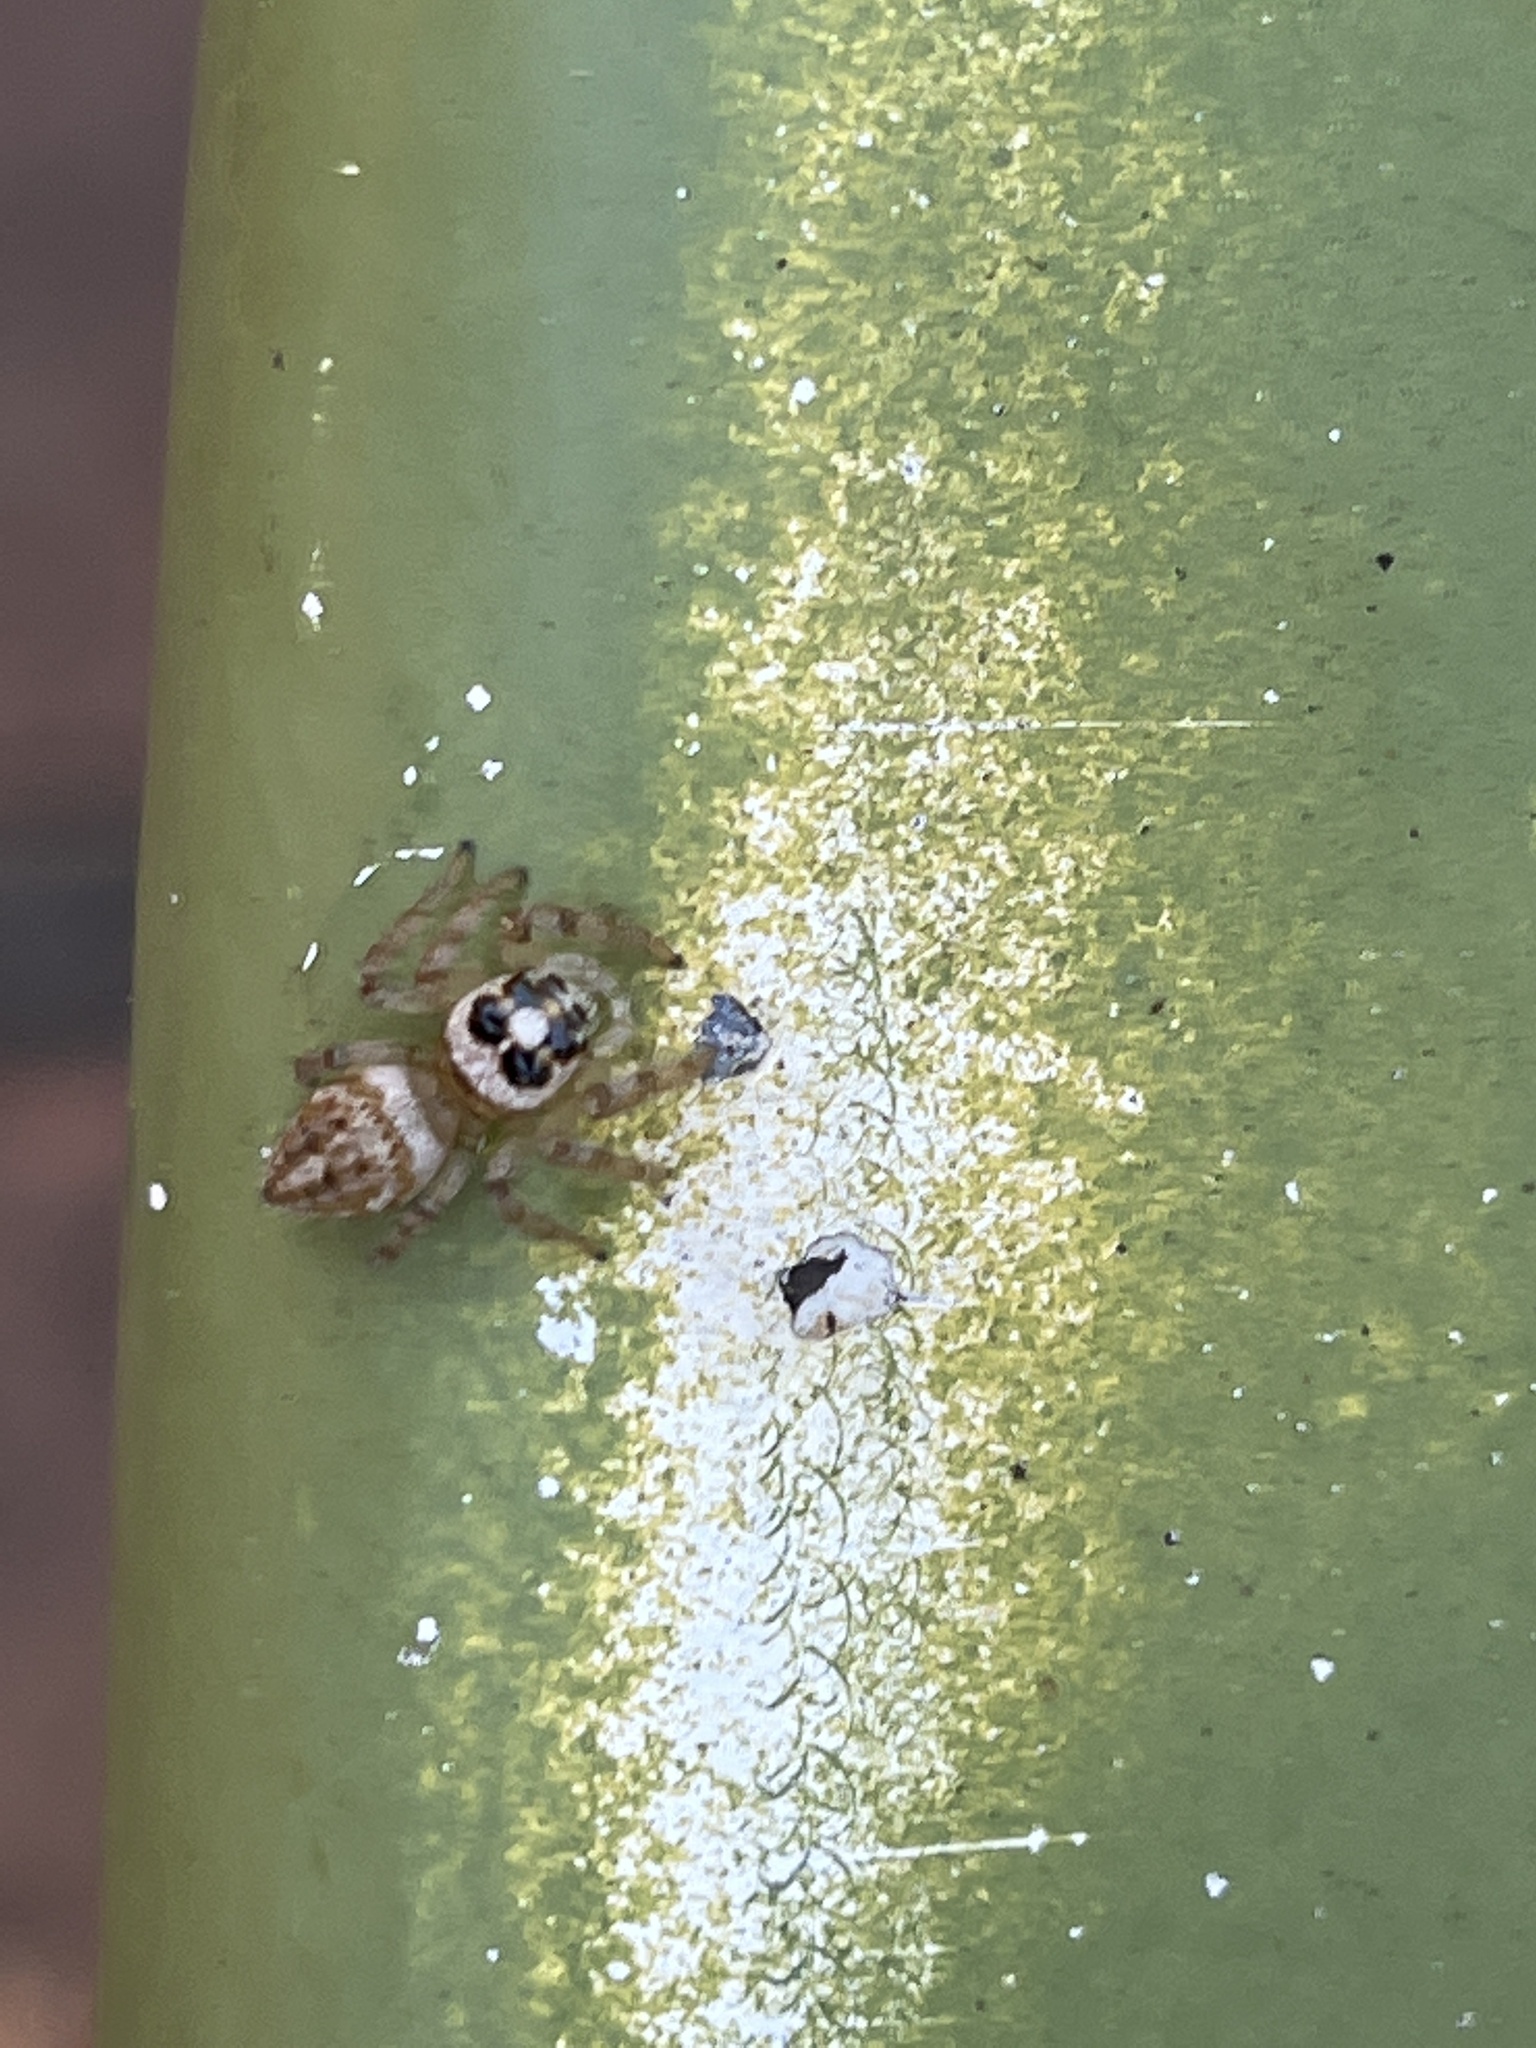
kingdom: Animalia
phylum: Arthropoda
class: Arachnida
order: Araneae
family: Salticidae
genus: Colonus
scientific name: Colonus hesperus
